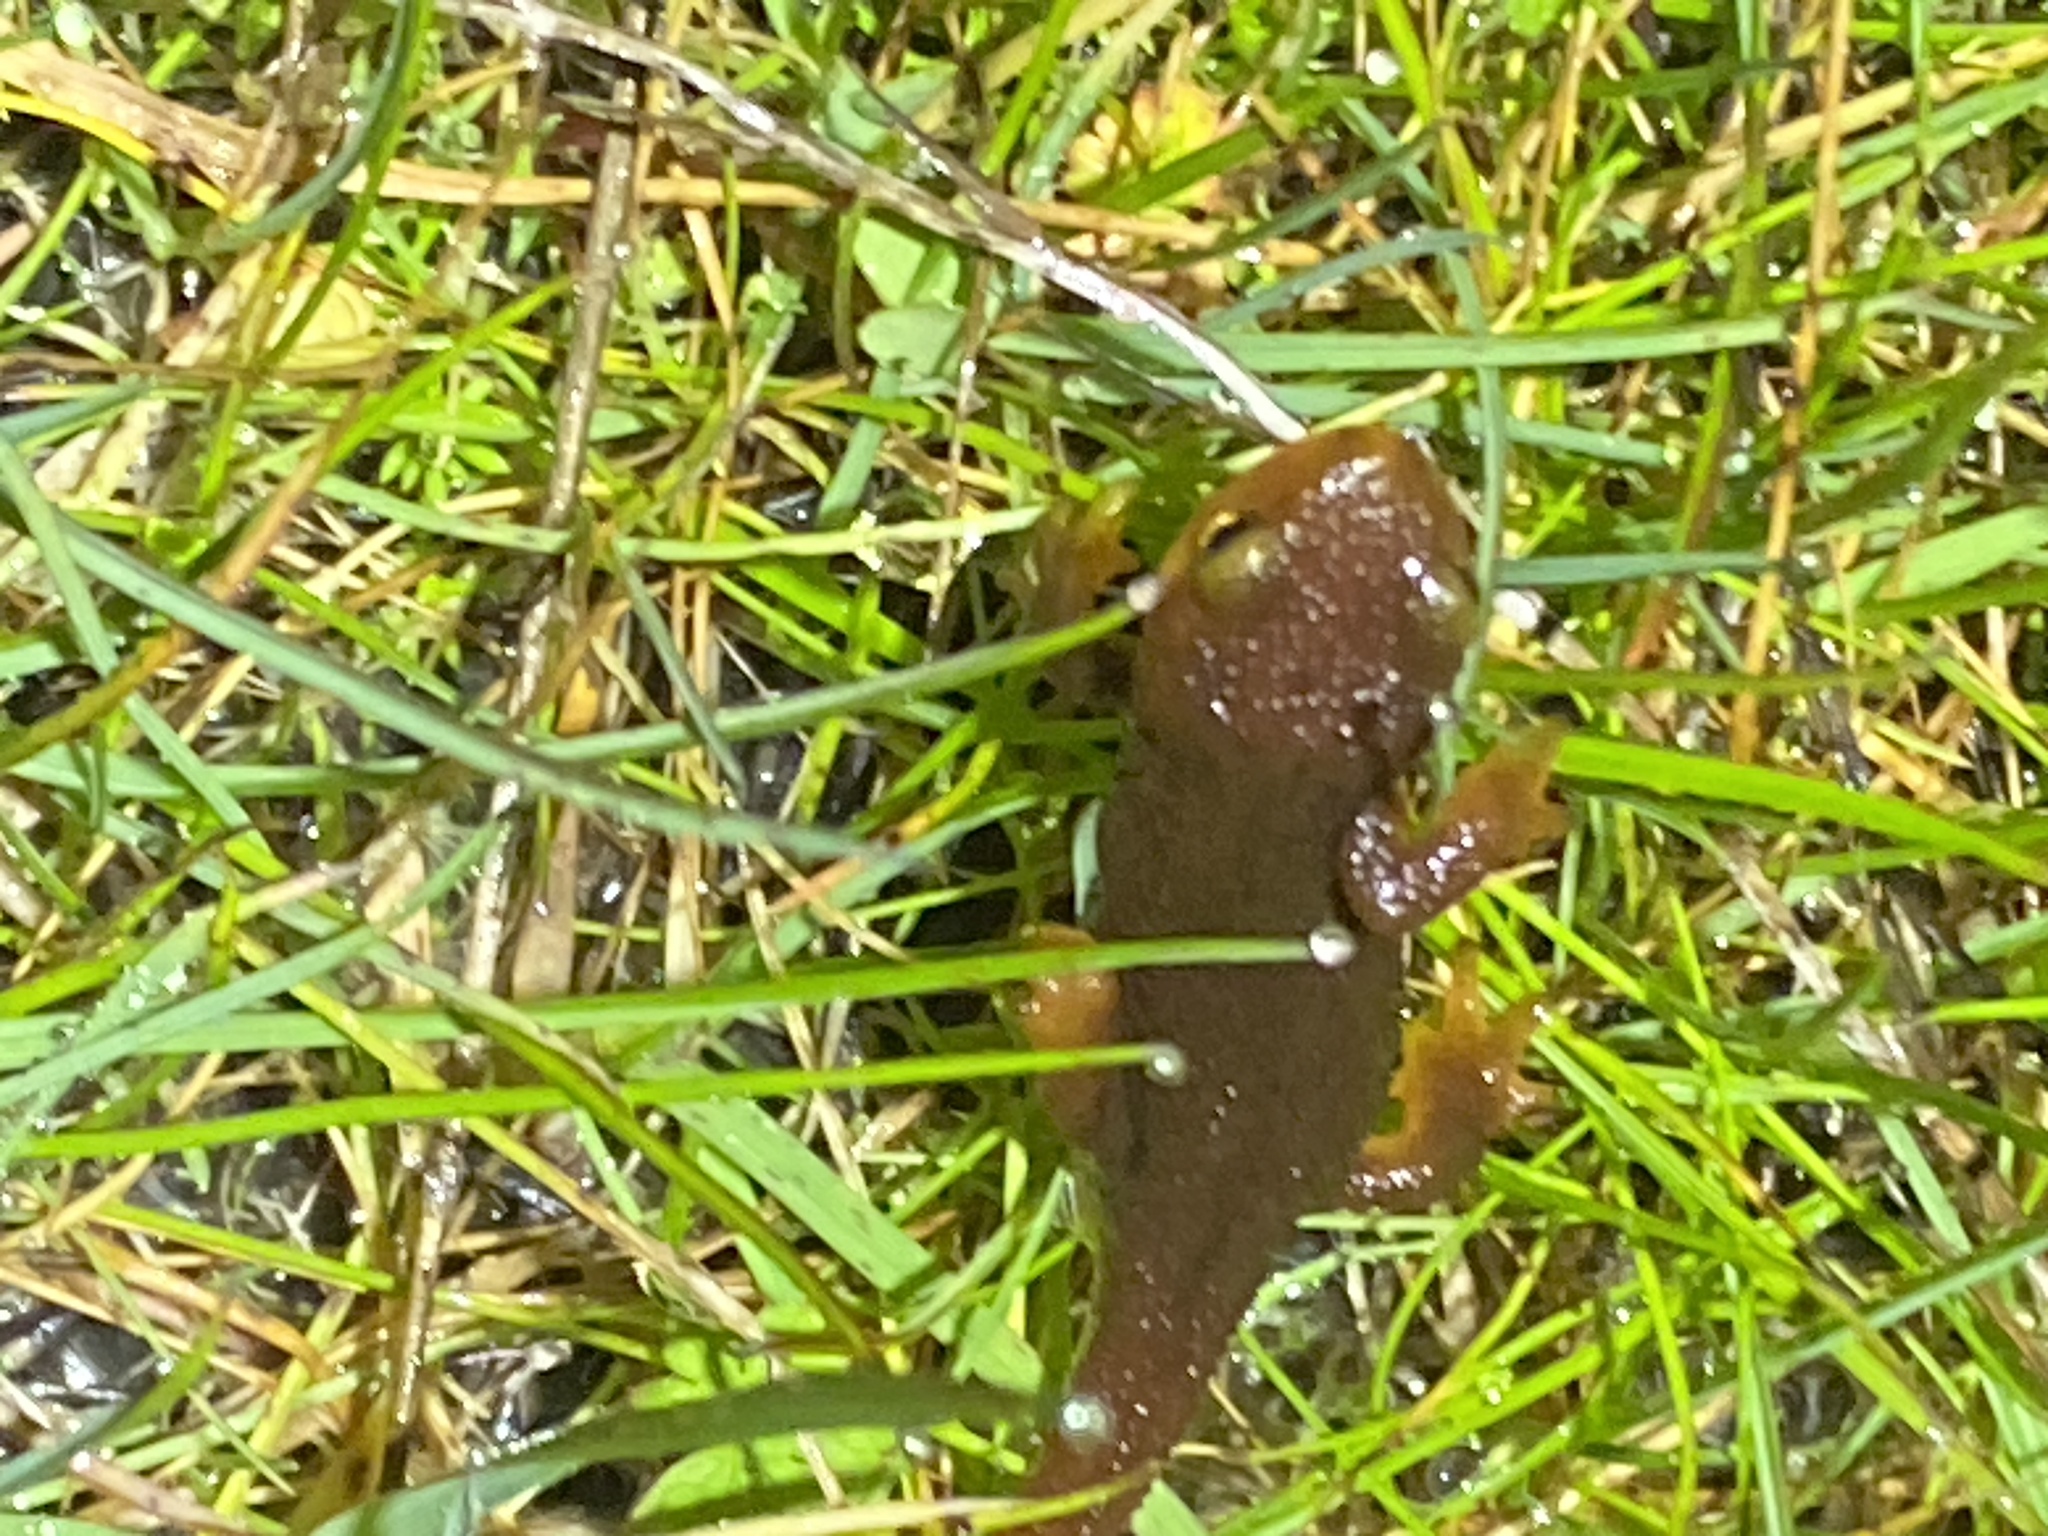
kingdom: Animalia
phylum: Chordata
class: Amphibia
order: Caudata
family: Salamandridae
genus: Taricha
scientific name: Taricha torosa
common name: California newt
